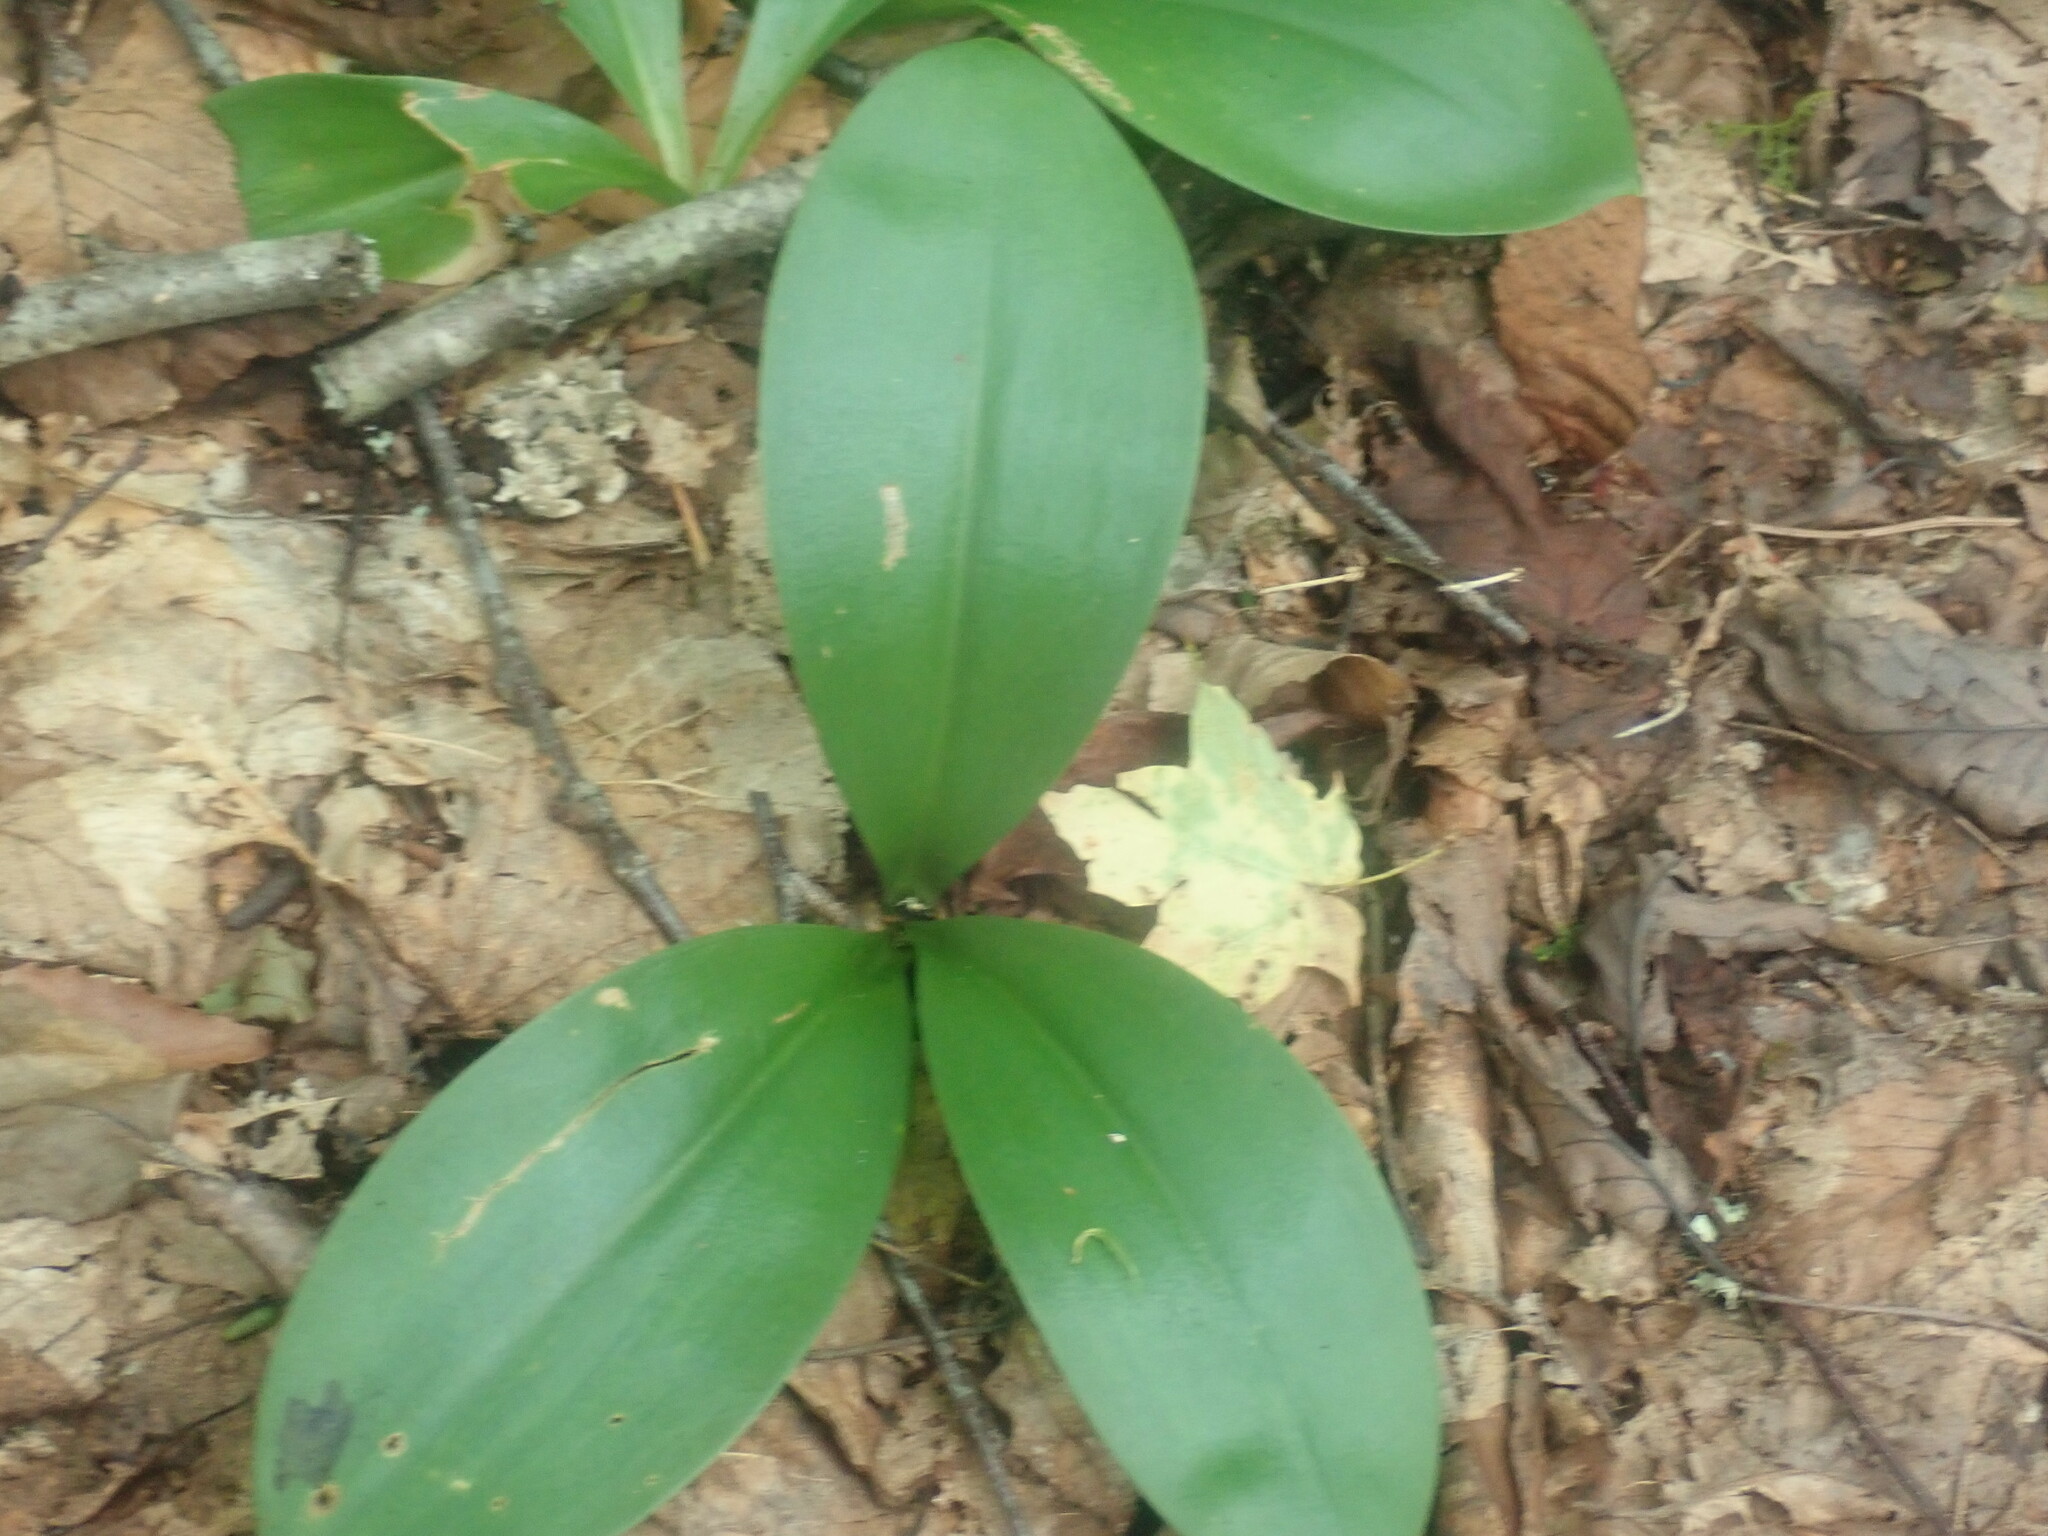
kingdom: Plantae
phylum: Tracheophyta
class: Liliopsida
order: Liliales
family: Liliaceae
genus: Clintonia
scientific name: Clintonia borealis
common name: Yellow clintonia
